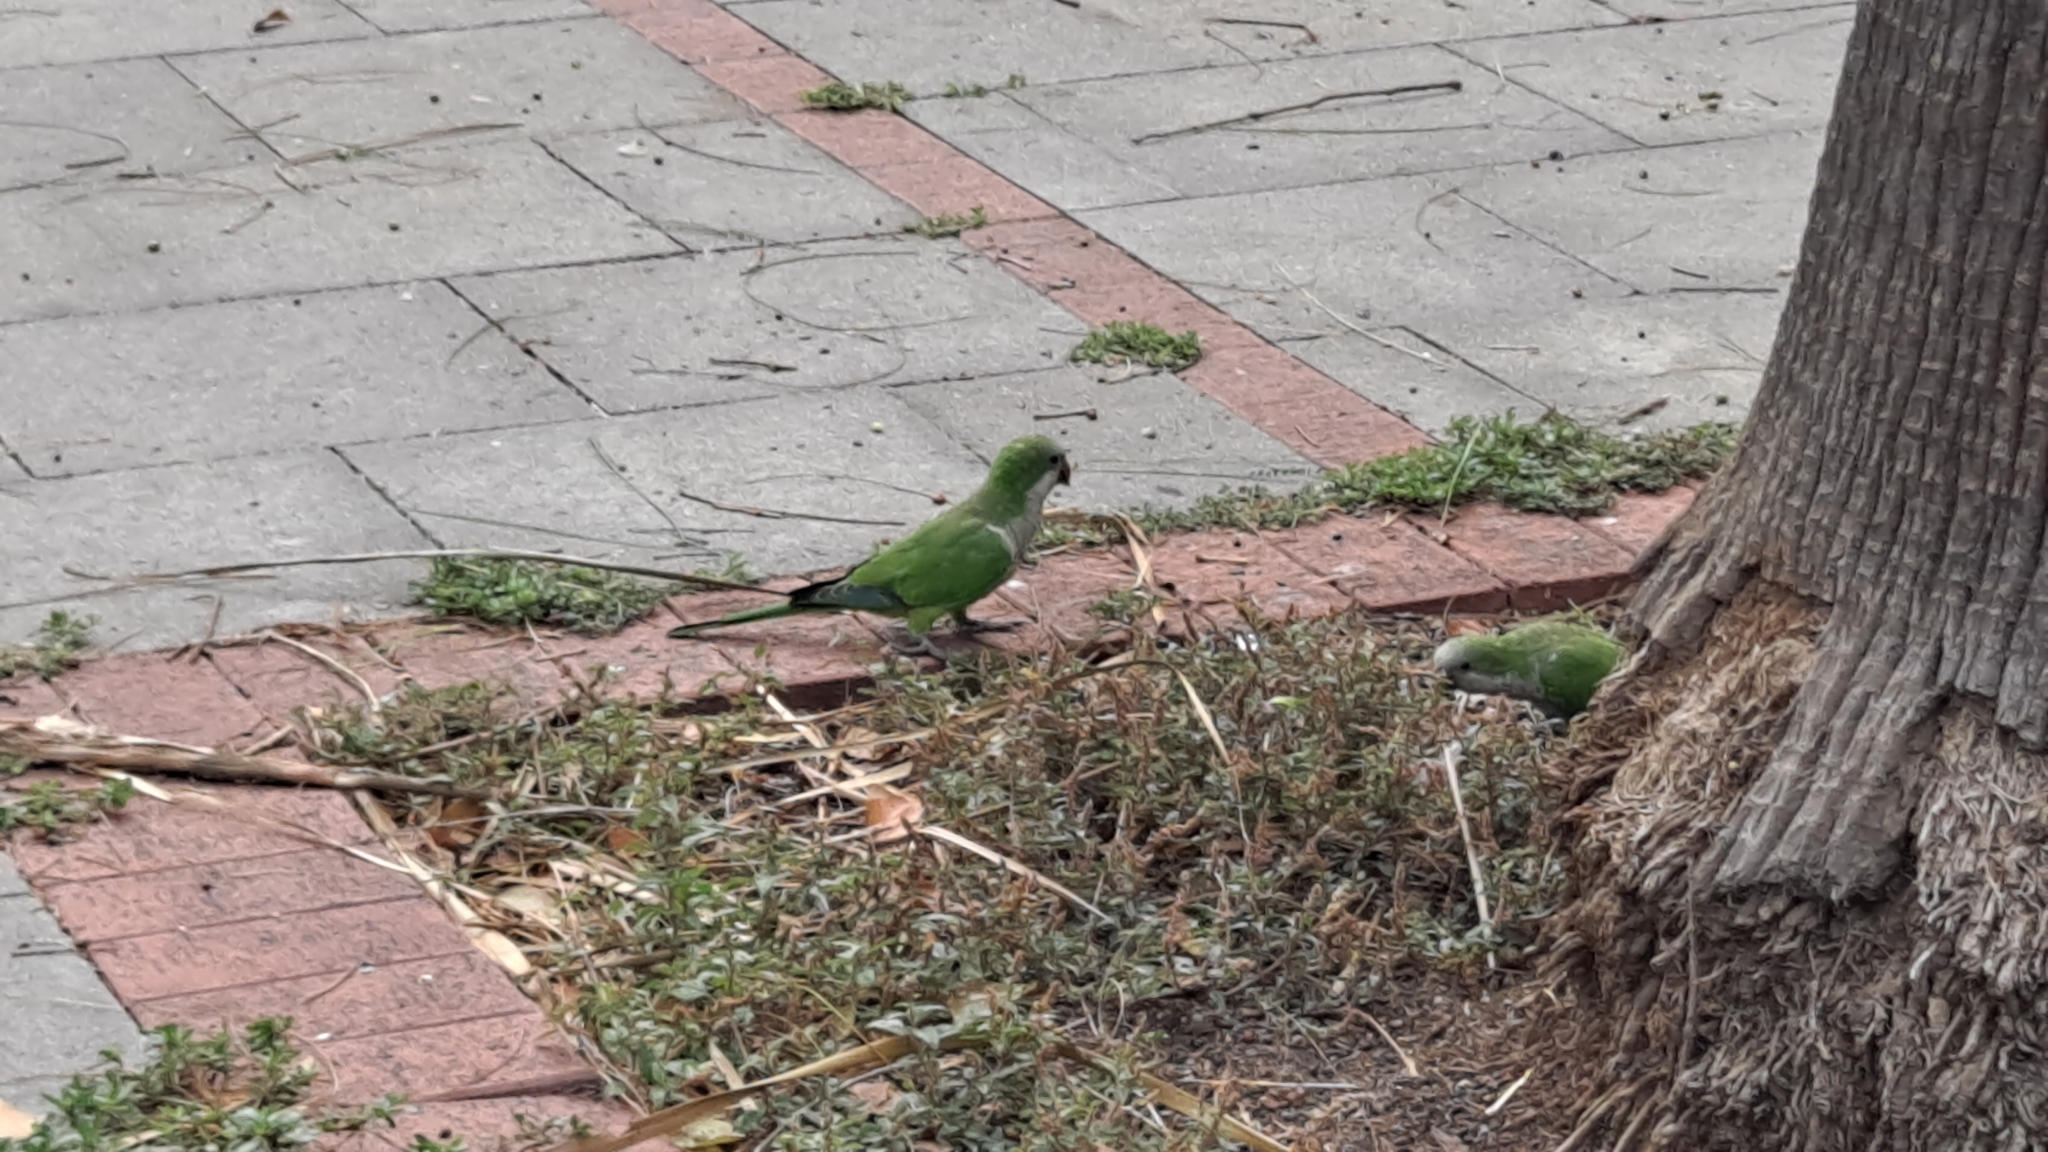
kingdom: Animalia
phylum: Chordata
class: Aves
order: Psittaciformes
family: Psittacidae
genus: Myiopsitta
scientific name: Myiopsitta monachus
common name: Monk parakeet
